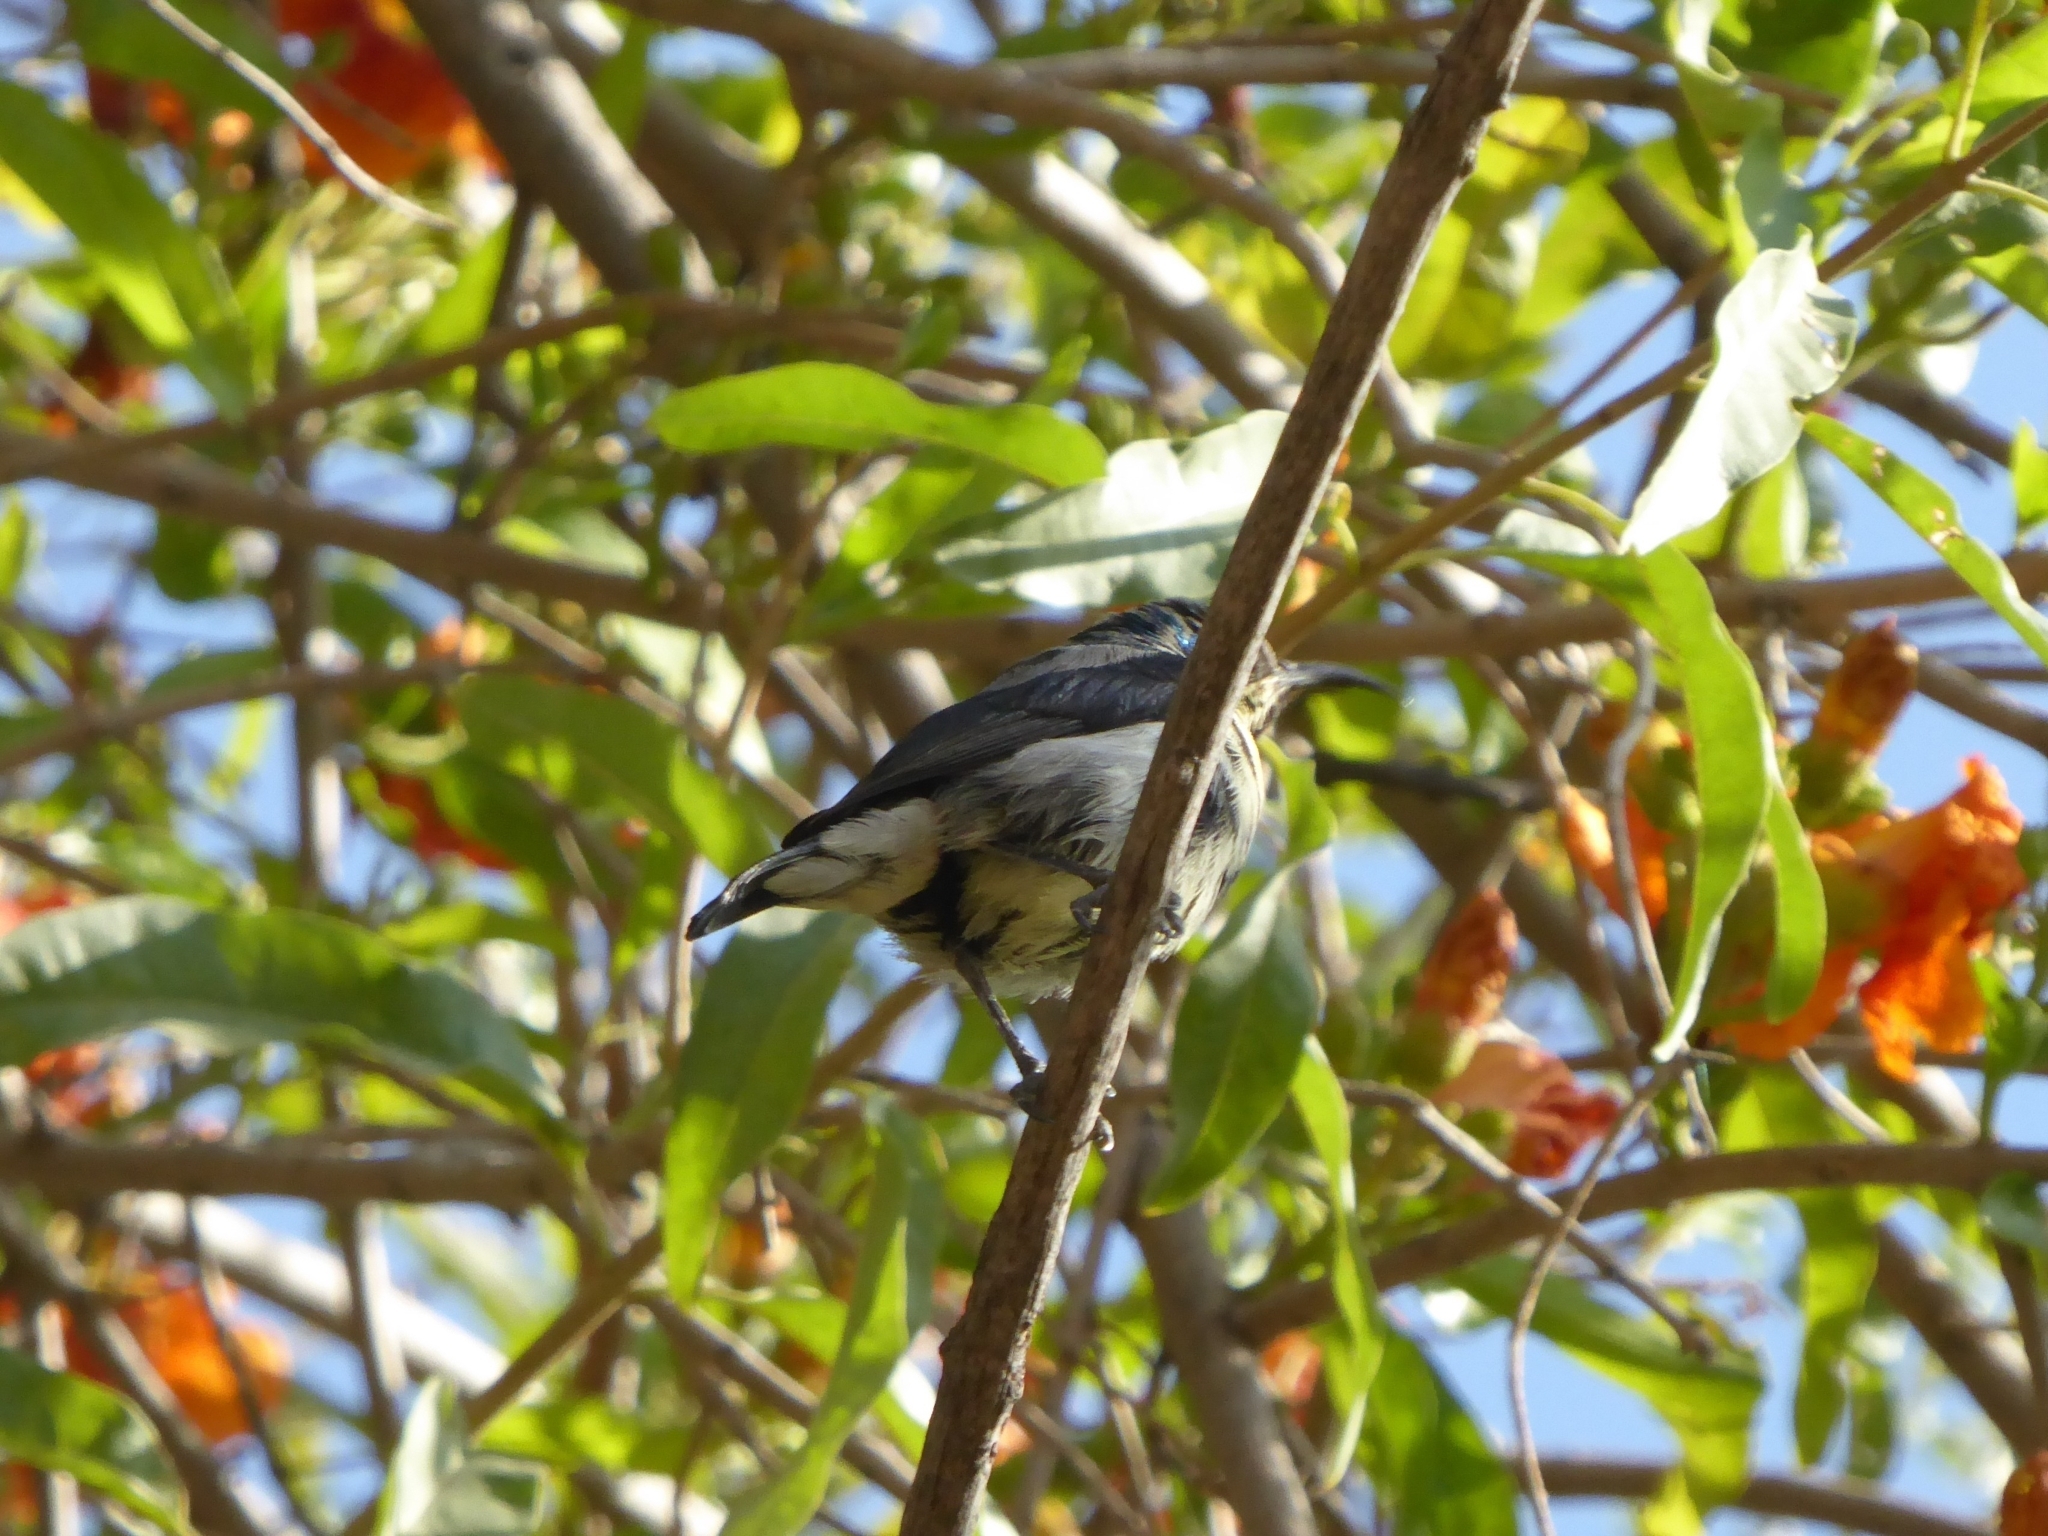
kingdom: Animalia
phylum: Chordata
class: Aves
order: Passeriformes
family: Nectariniidae
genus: Cinnyris
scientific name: Cinnyris asiaticus
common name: Purple sunbird
